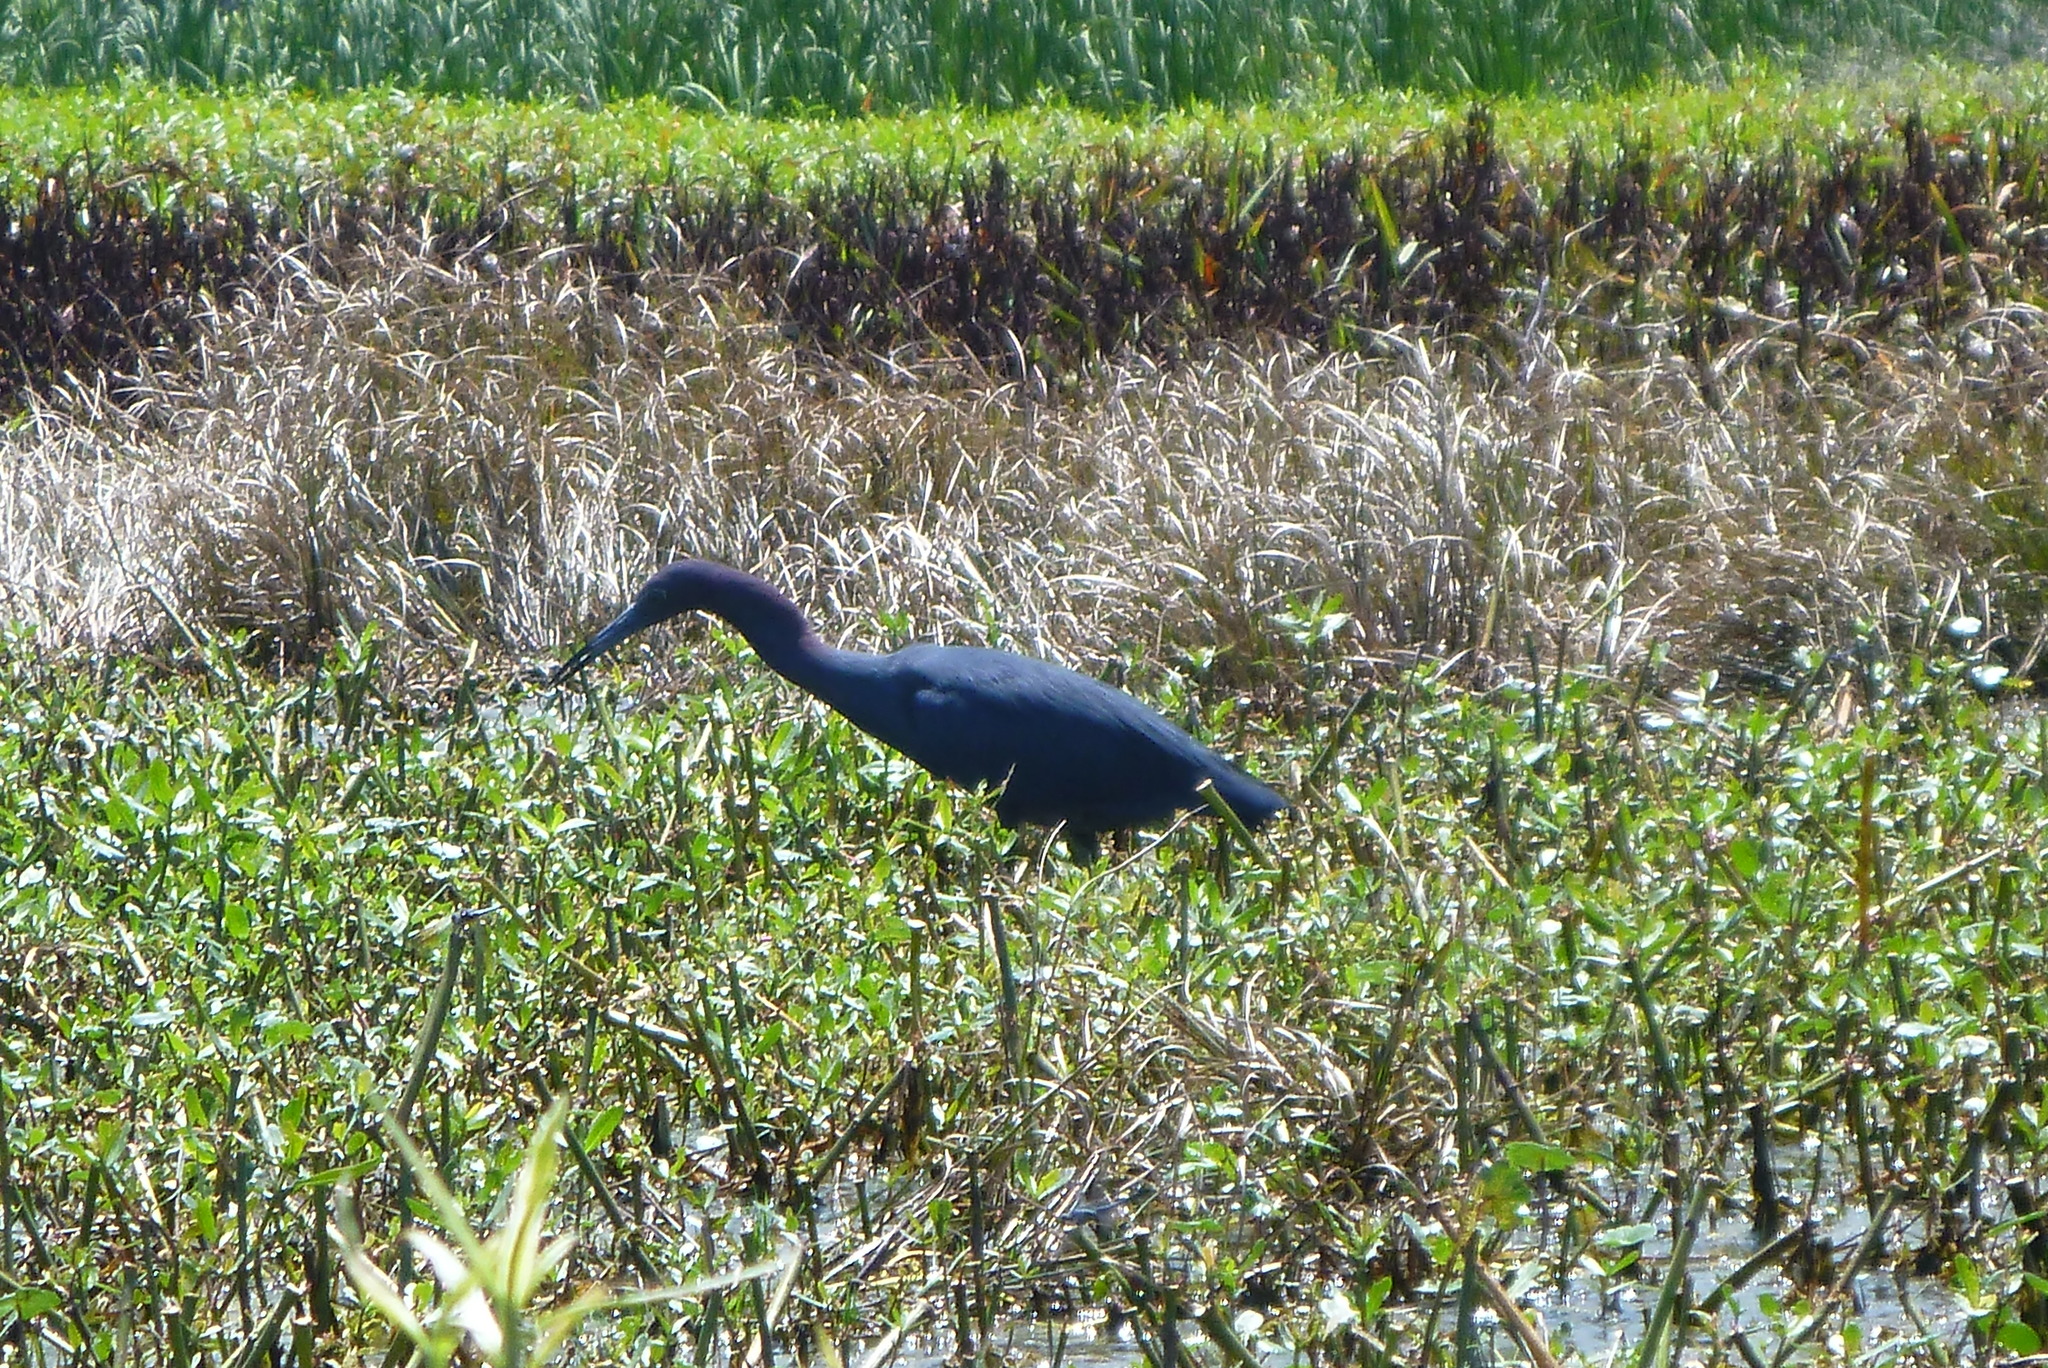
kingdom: Animalia
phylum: Chordata
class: Aves
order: Pelecaniformes
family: Ardeidae
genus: Egretta
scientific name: Egretta caerulea
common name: Little blue heron
